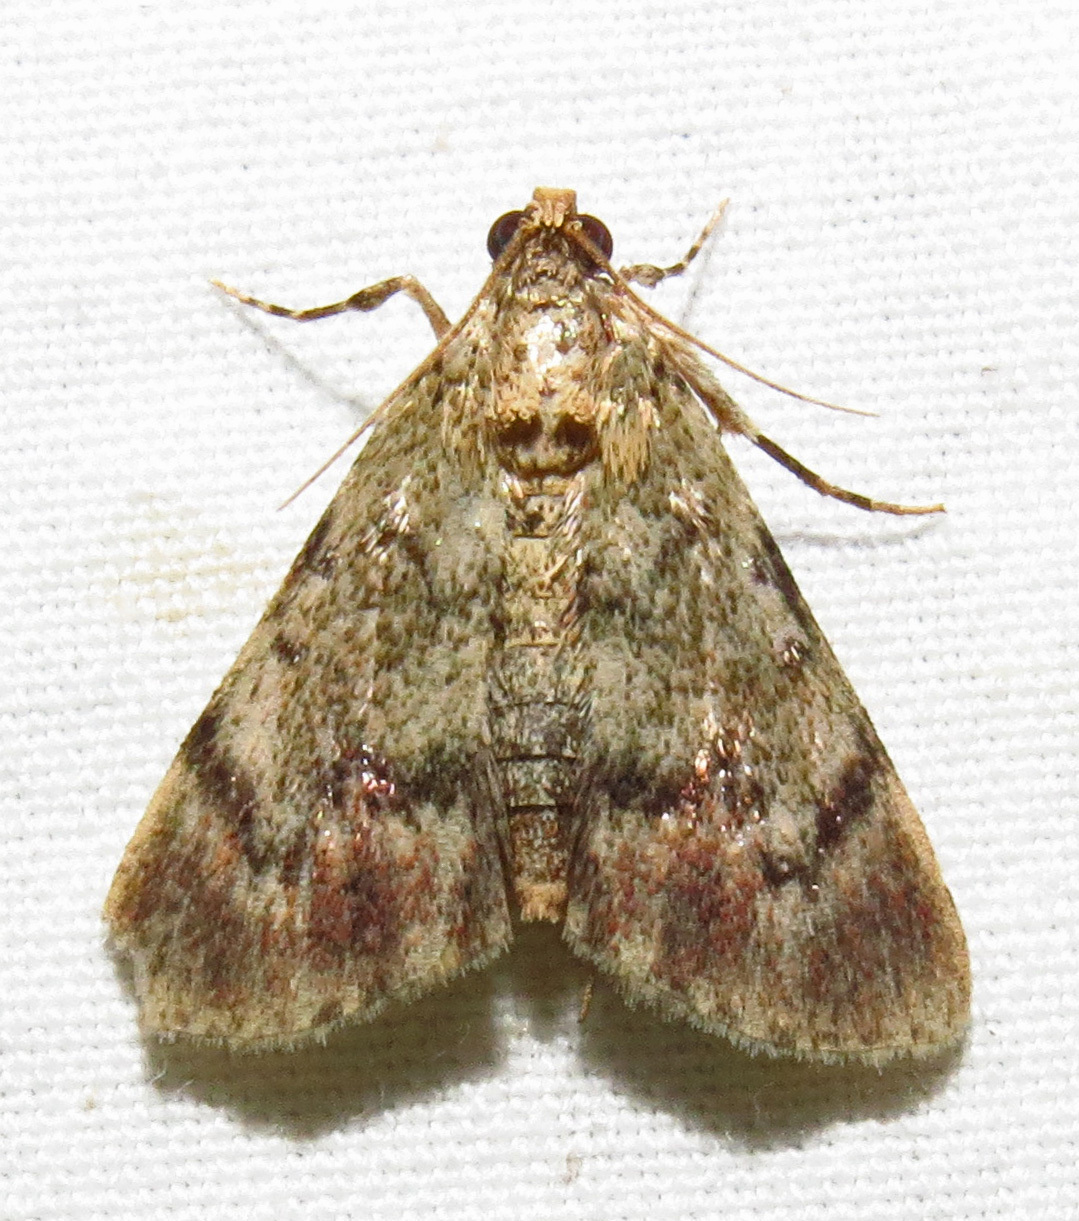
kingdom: Animalia
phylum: Arthropoda
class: Insecta
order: Lepidoptera
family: Pyralidae
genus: Epipaschia
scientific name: Epipaschia superatalis
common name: Dimorphic macalla moth
